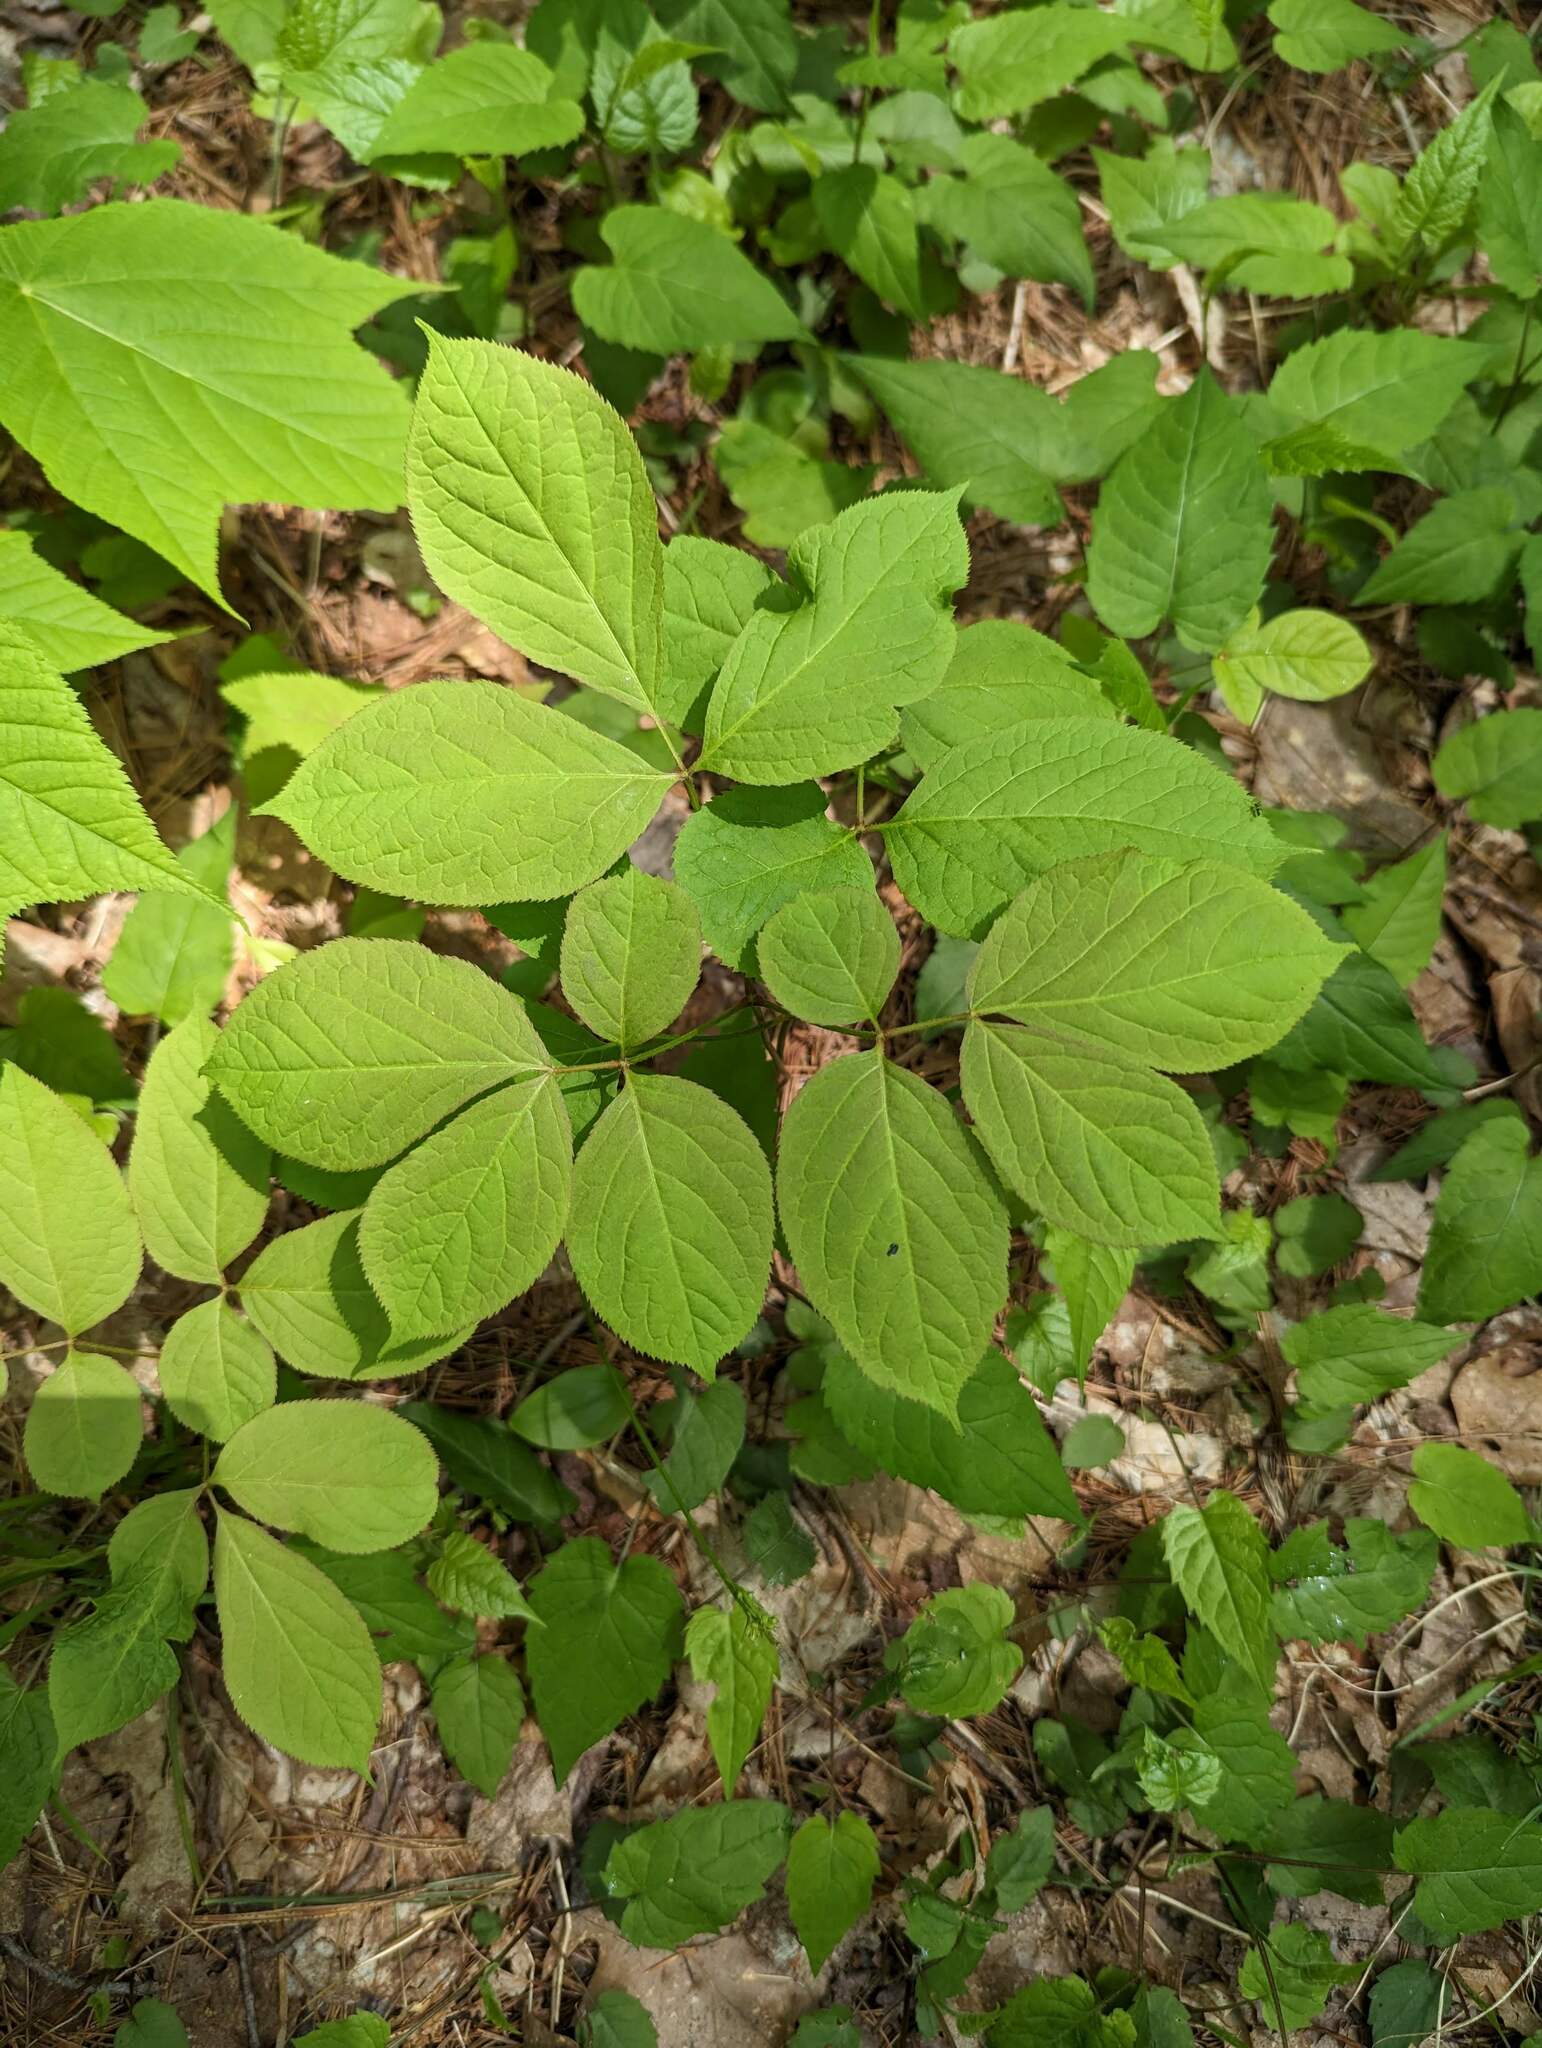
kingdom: Plantae
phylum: Tracheophyta
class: Magnoliopsida
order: Apiales
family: Araliaceae
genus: Aralia
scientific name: Aralia nudicaulis
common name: Wild sarsaparilla
